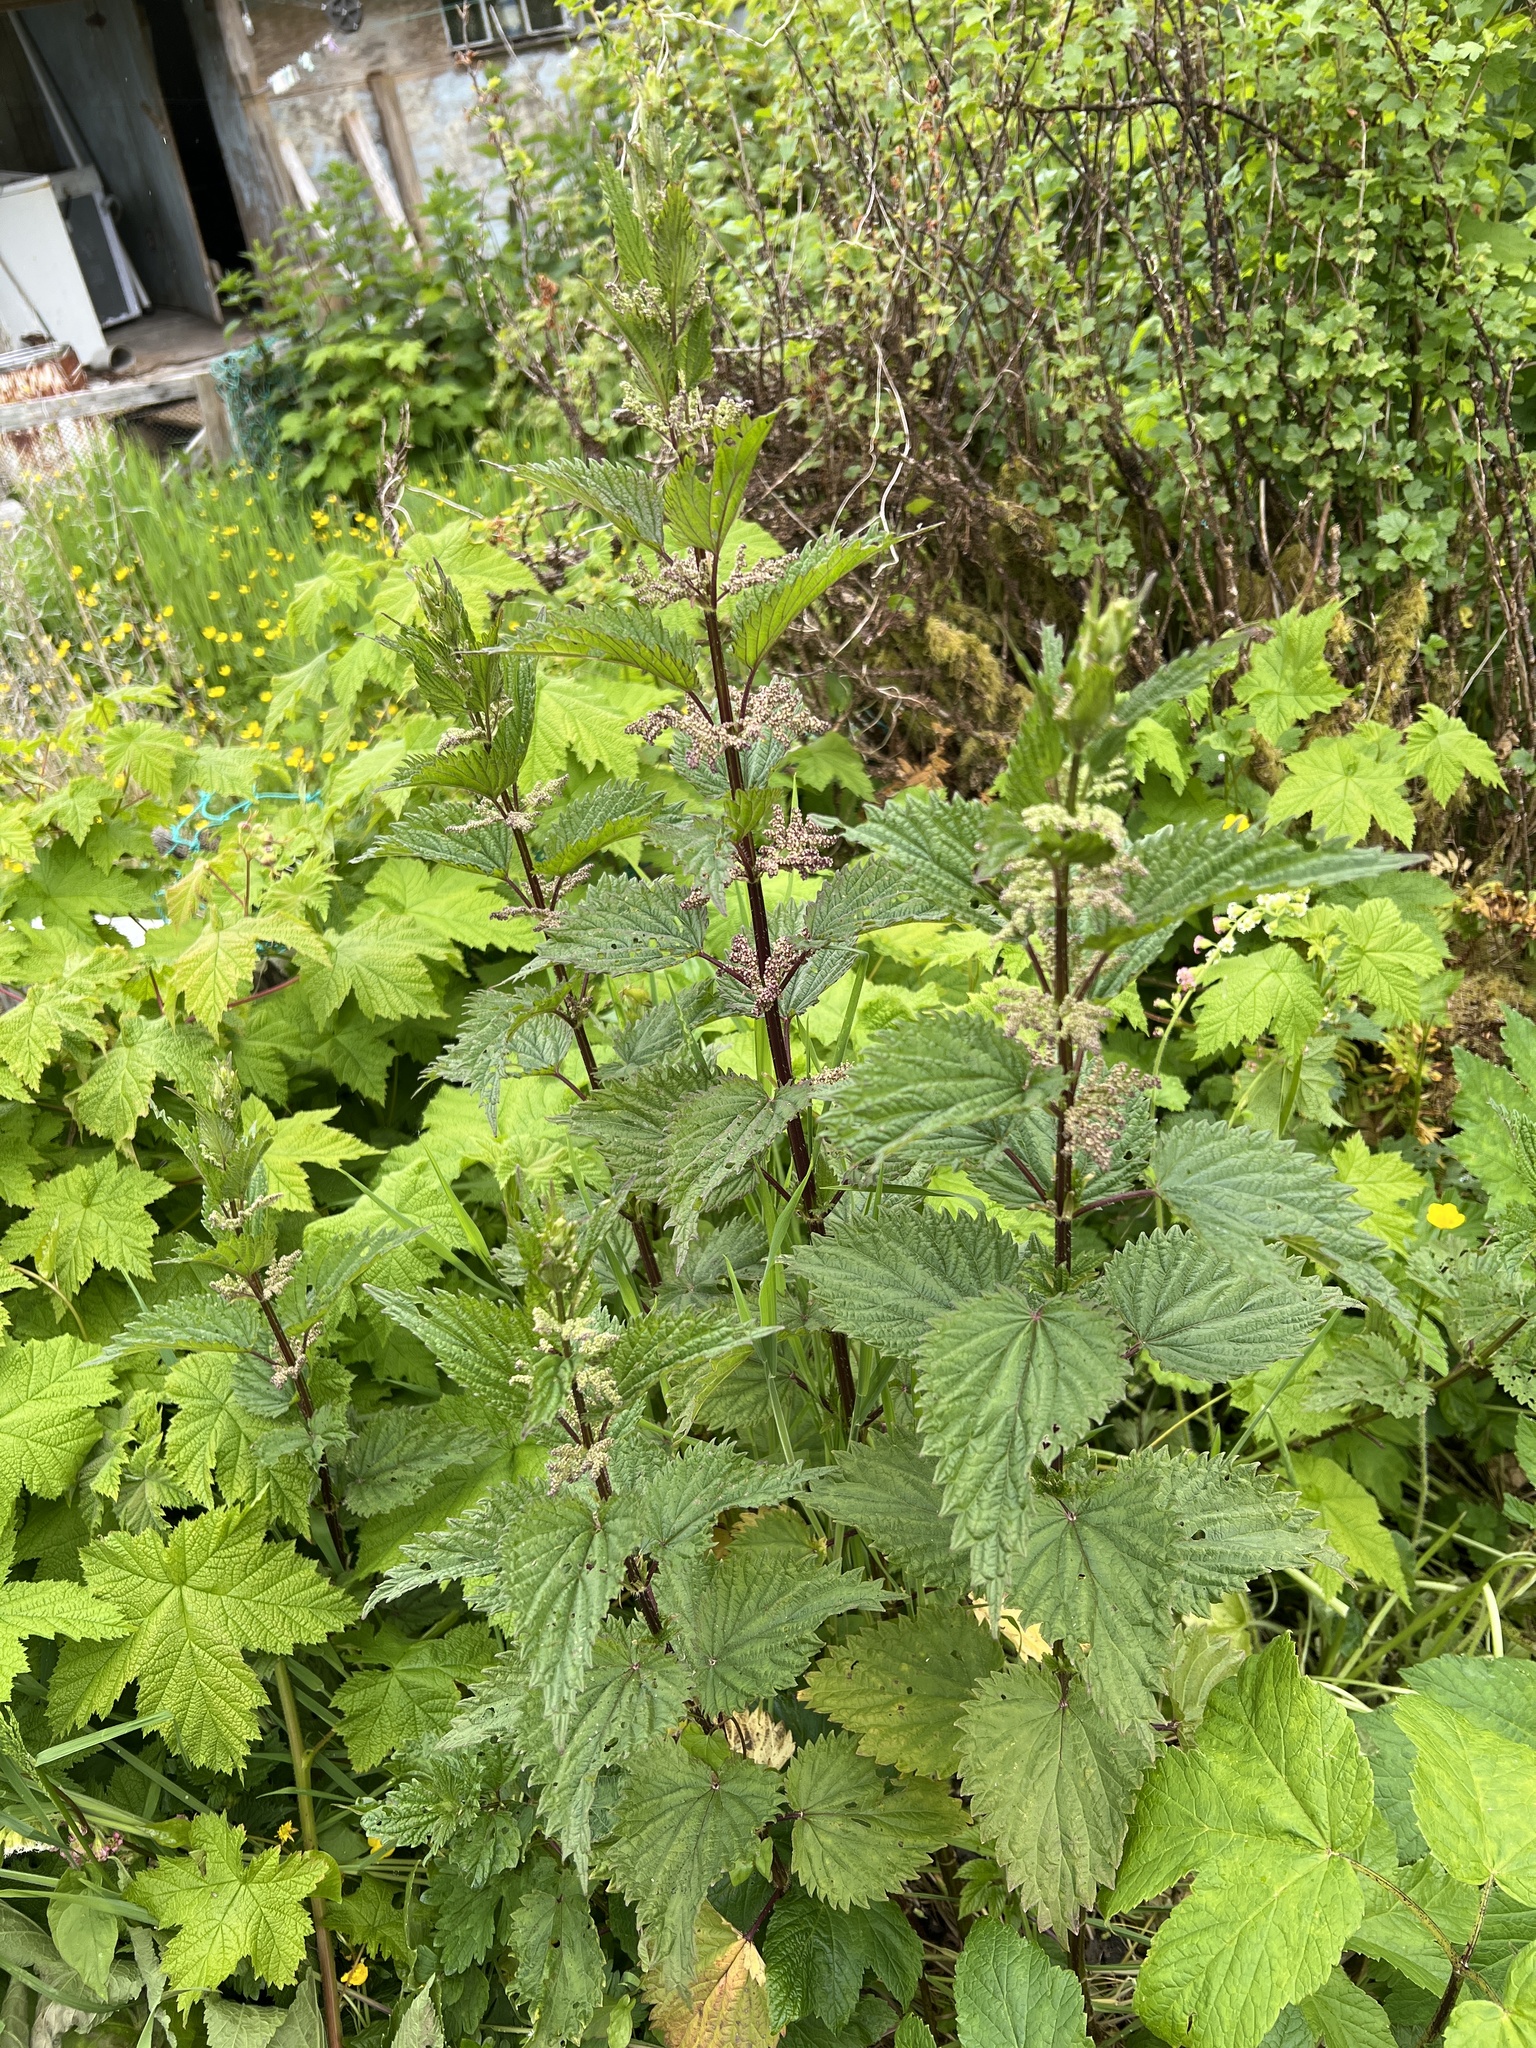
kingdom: Plantae
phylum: Tracheophyta
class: Magnoliopsida
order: Rosales
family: Urticaceae
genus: Urtica
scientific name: Urtica dioica
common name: Common nettle
